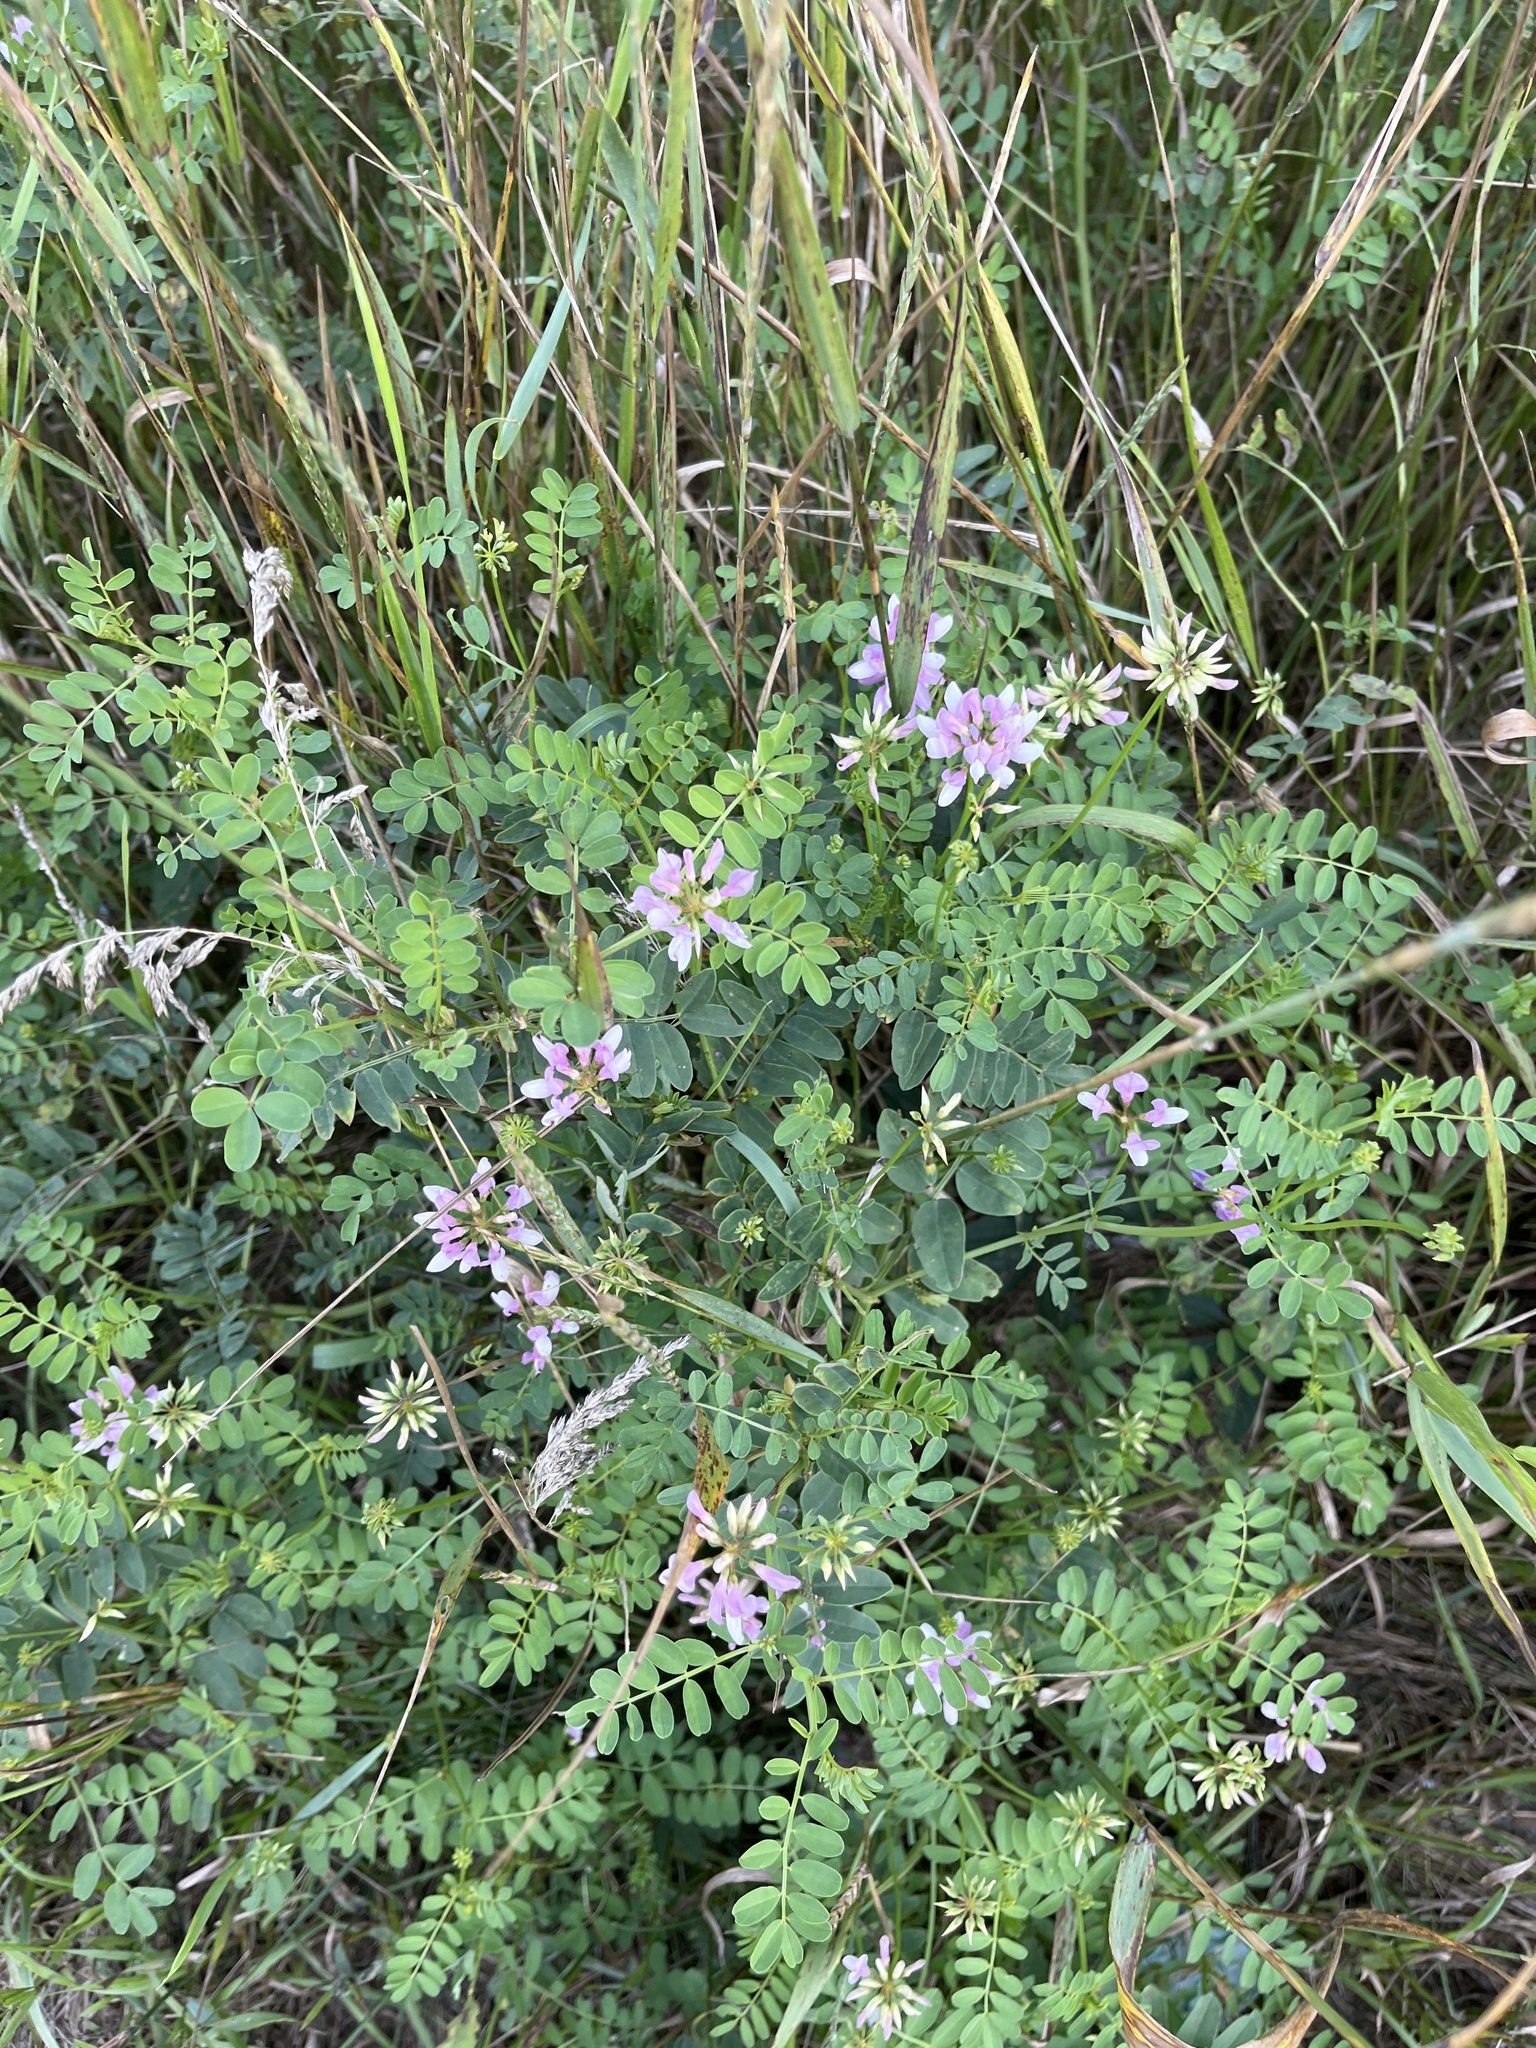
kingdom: Plantae
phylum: Tracheophyta
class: Magnoliopsida
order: Fabales
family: Fabaceae
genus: Coronilla
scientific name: Coronilla varia
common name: Crownvetch
